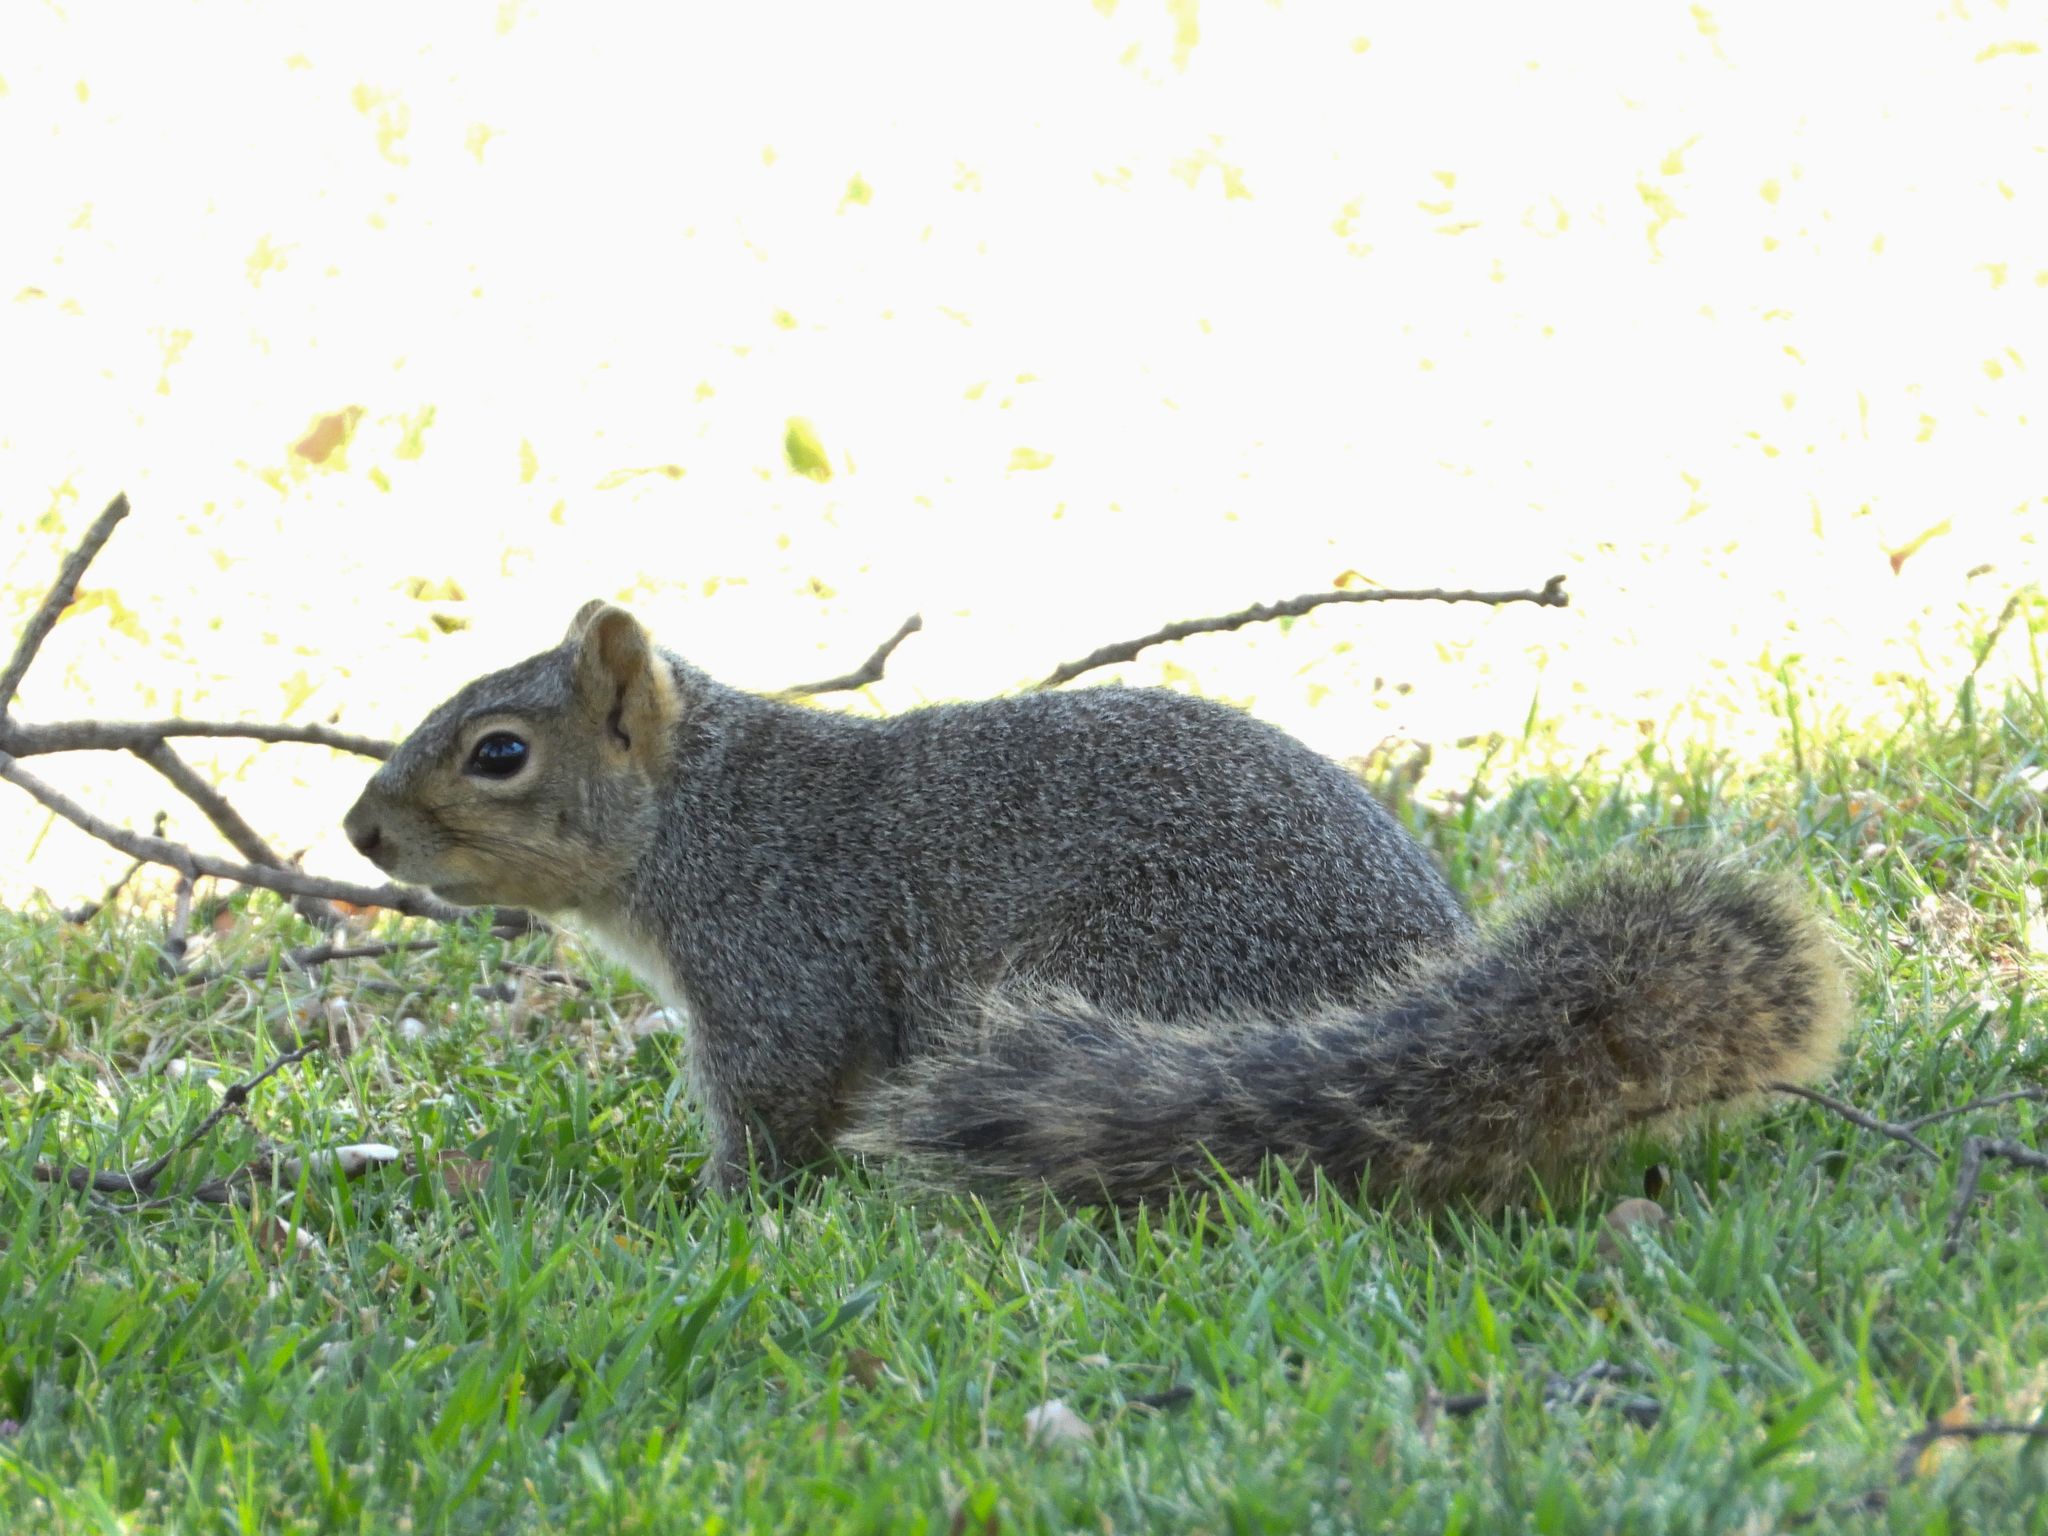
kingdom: Animalia
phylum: Chordata
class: Mammalia
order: Rodentia
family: Sciuridae
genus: Sciurus
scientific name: Sciurus niger
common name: Fox squirrel
